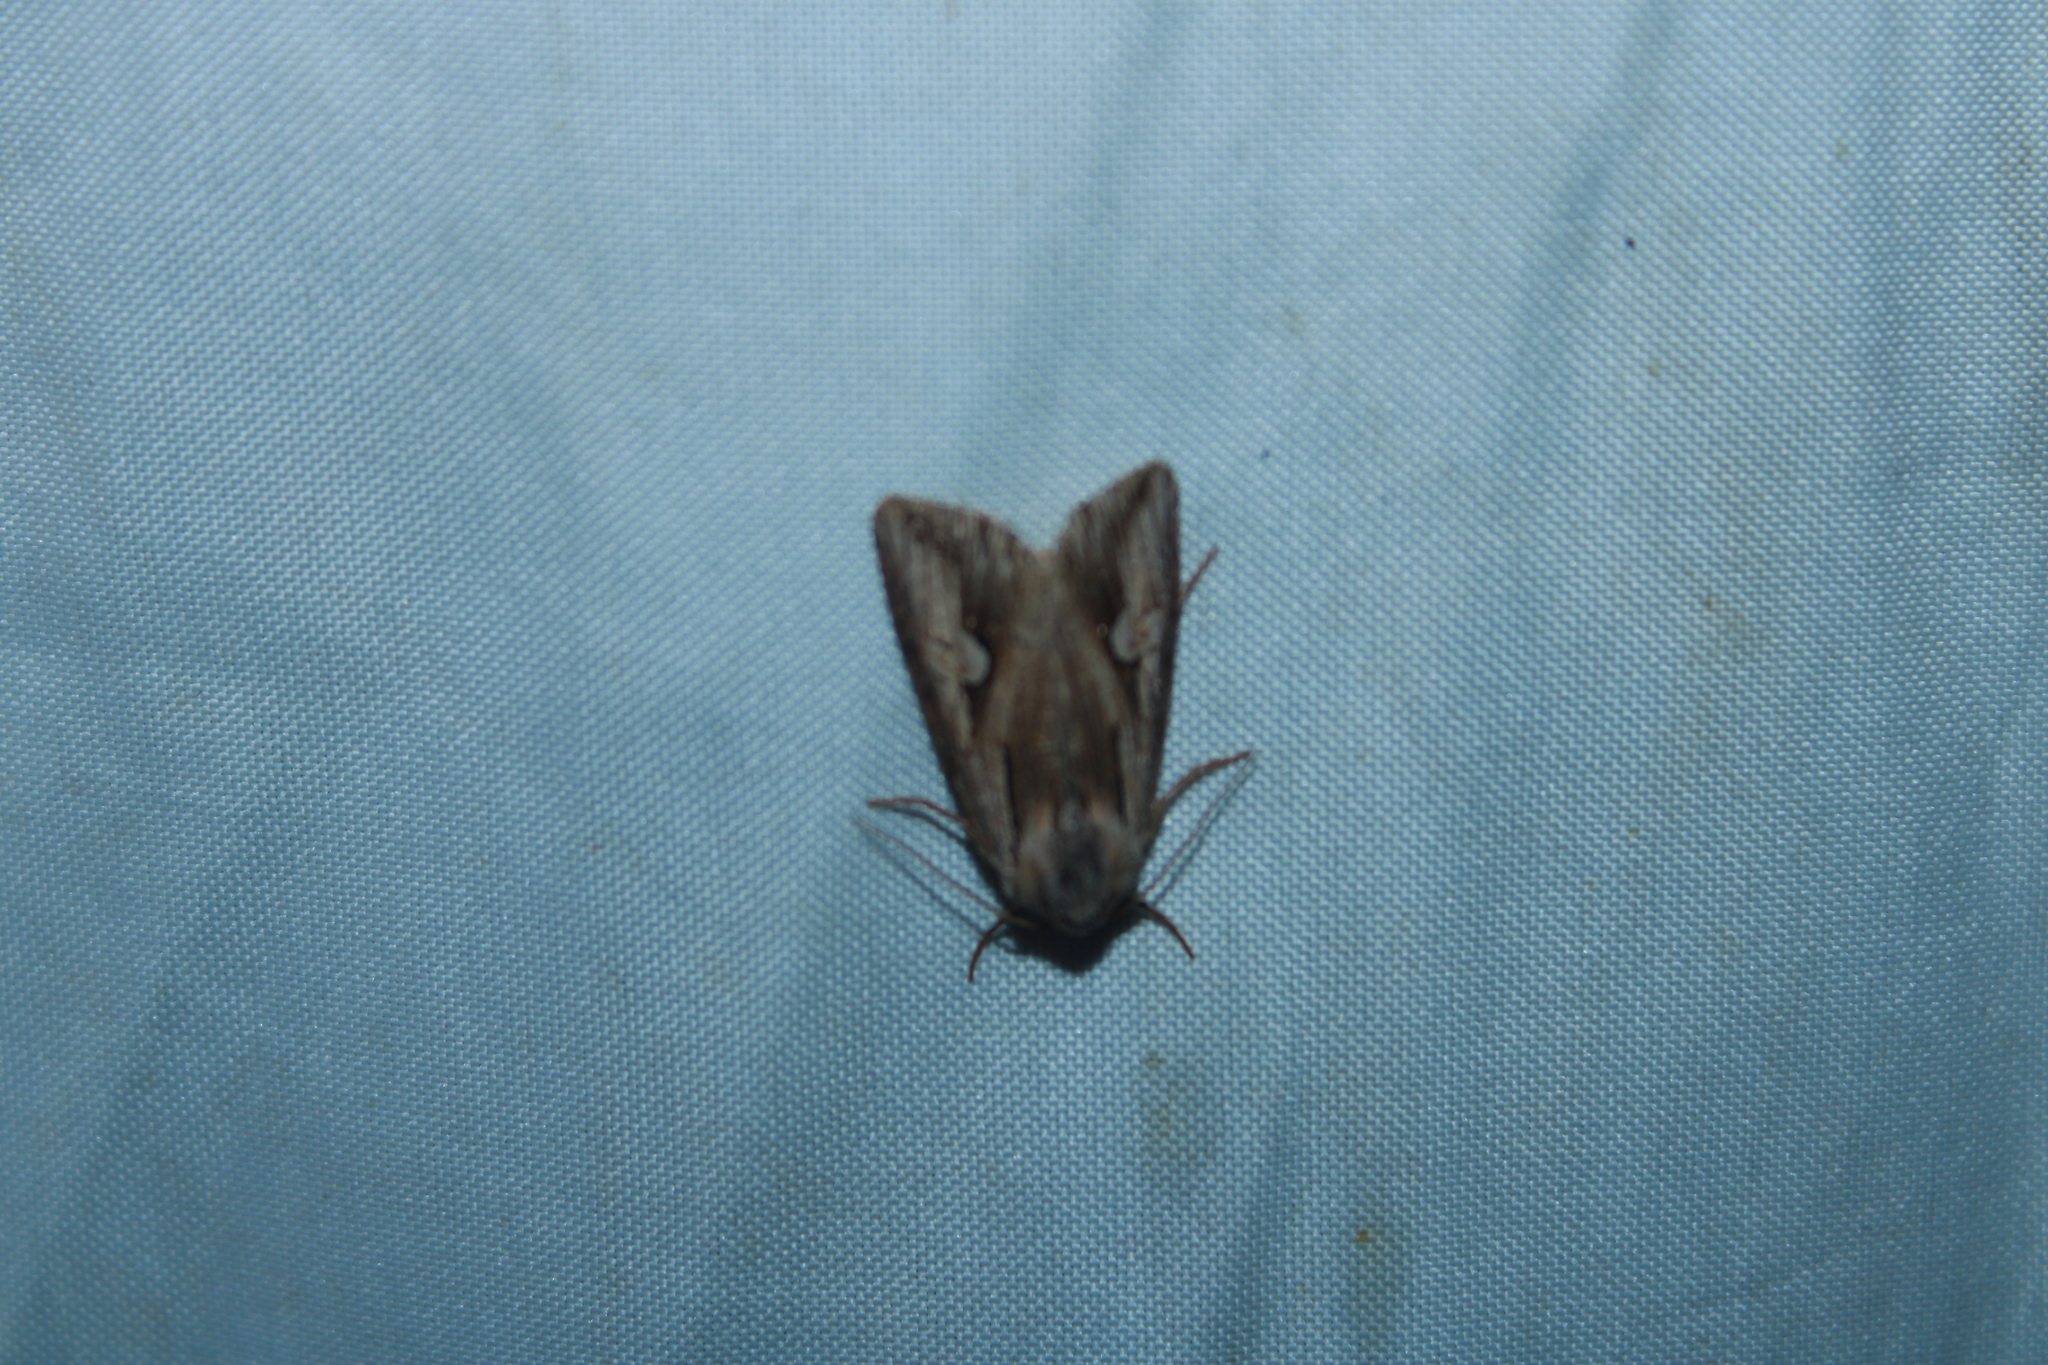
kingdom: Animalia
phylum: Arthropoda
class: Insecta
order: Lepidoptera
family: Noctuidae
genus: Nedra
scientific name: Nedra ramosula
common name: Gray half-spot
